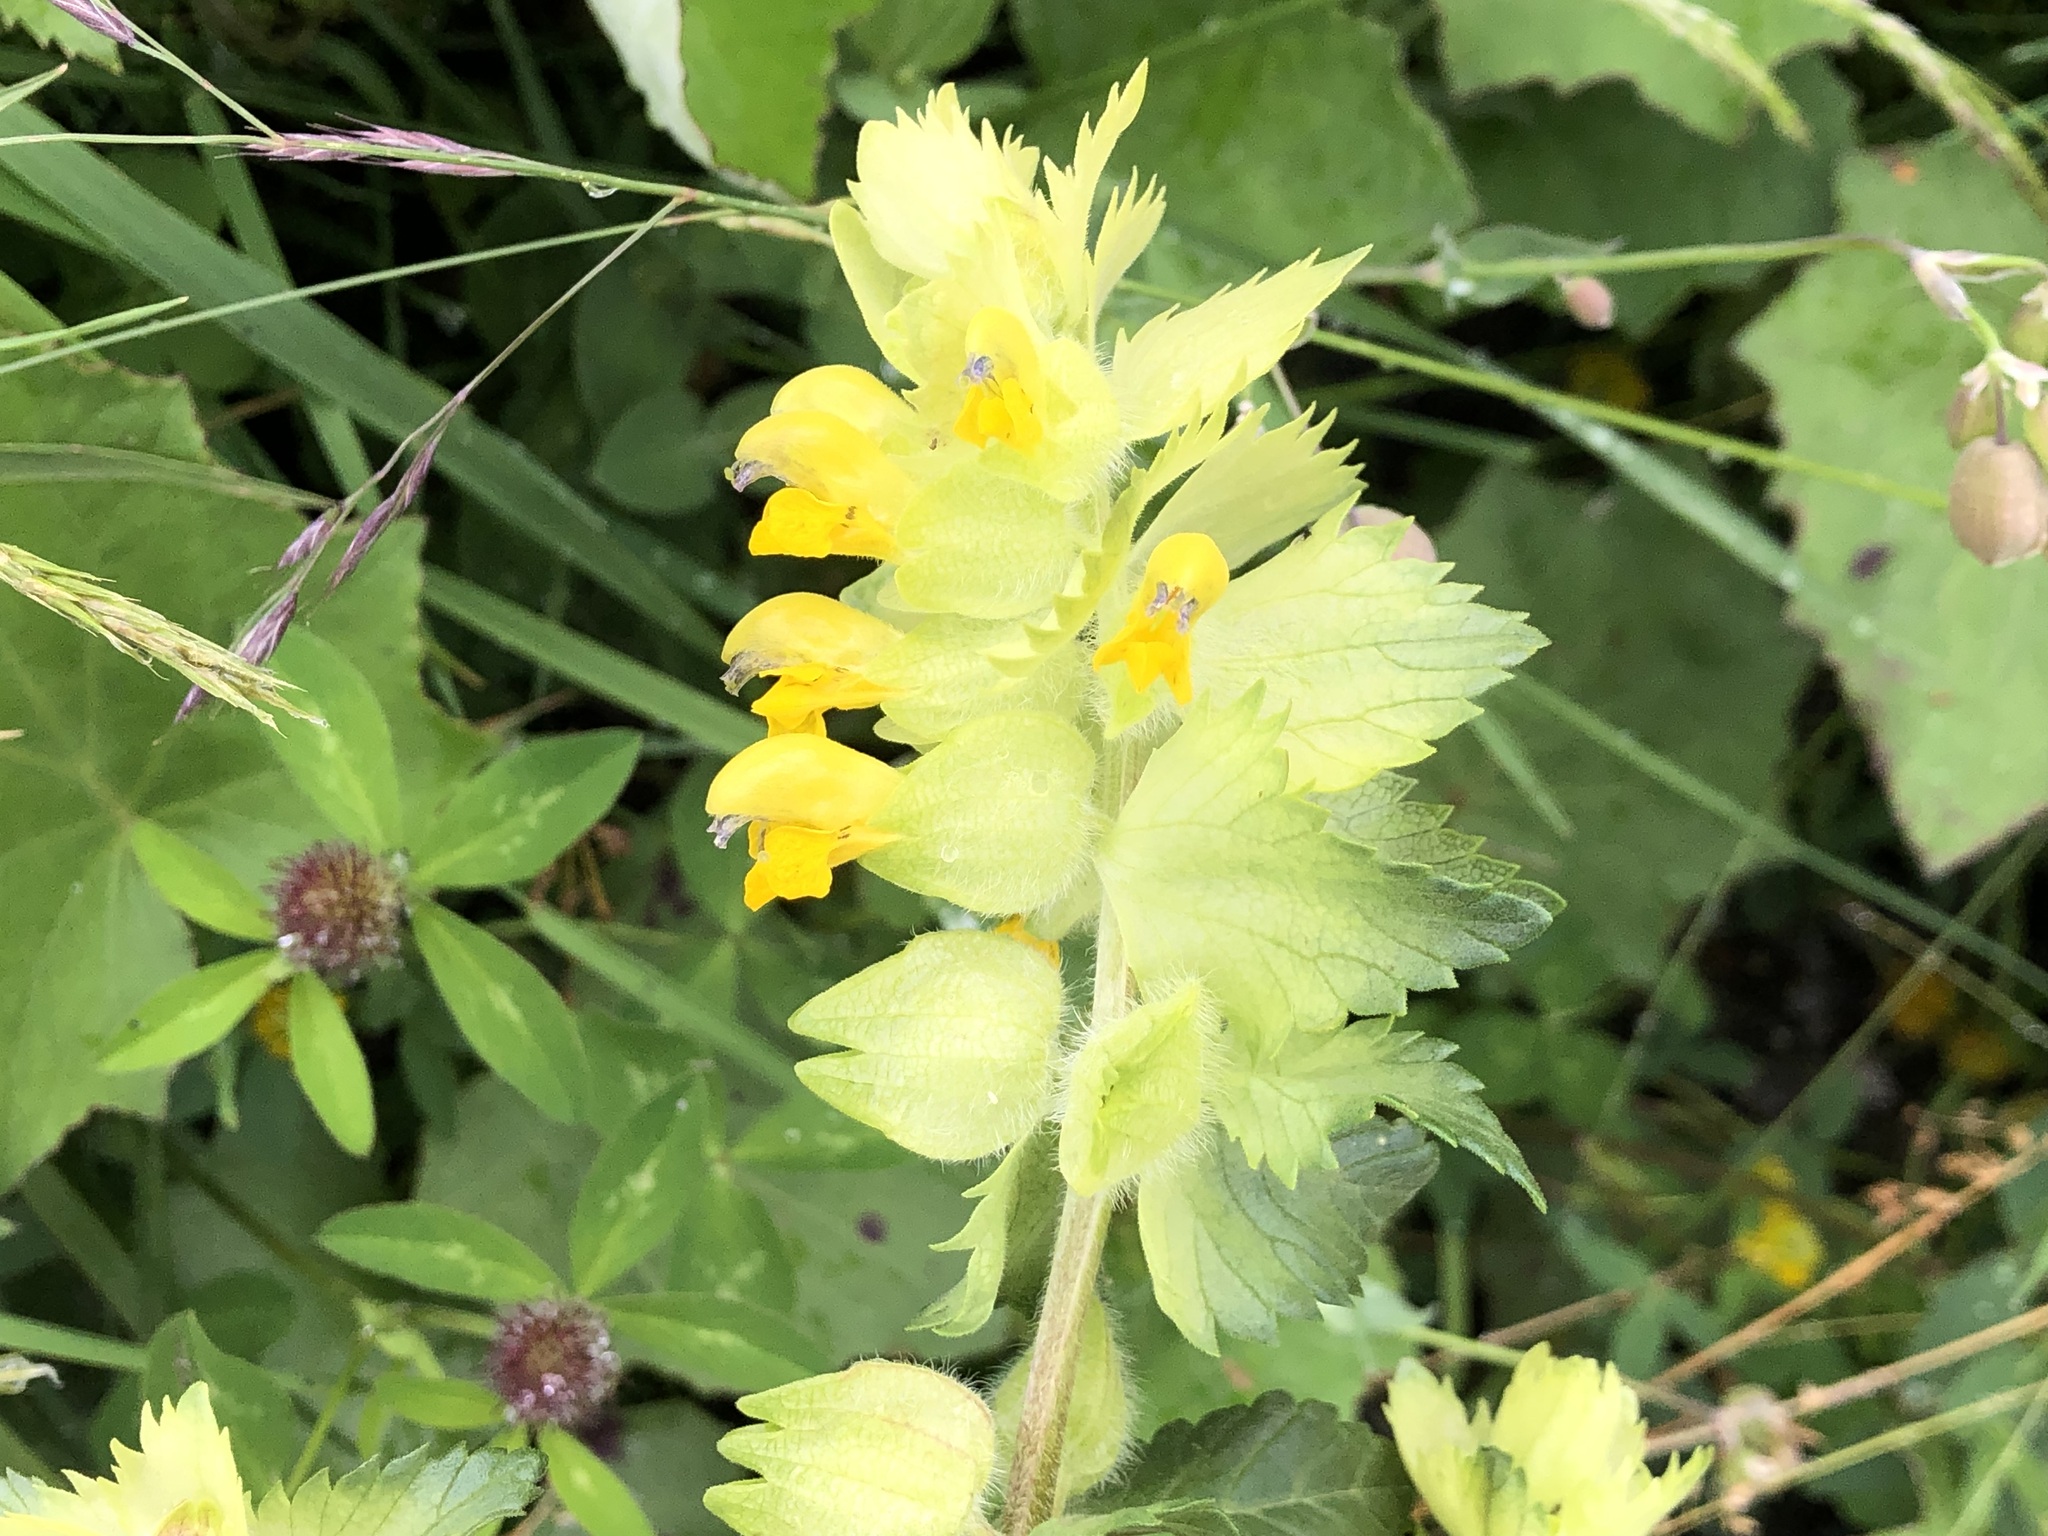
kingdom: Plantae
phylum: Tracheophyta
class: Magnoliopsida
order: Lamiales
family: Orobanchaceae
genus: Rhinanthus
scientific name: Rhinanthus alectorolophus
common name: Greater yellow-rattle
